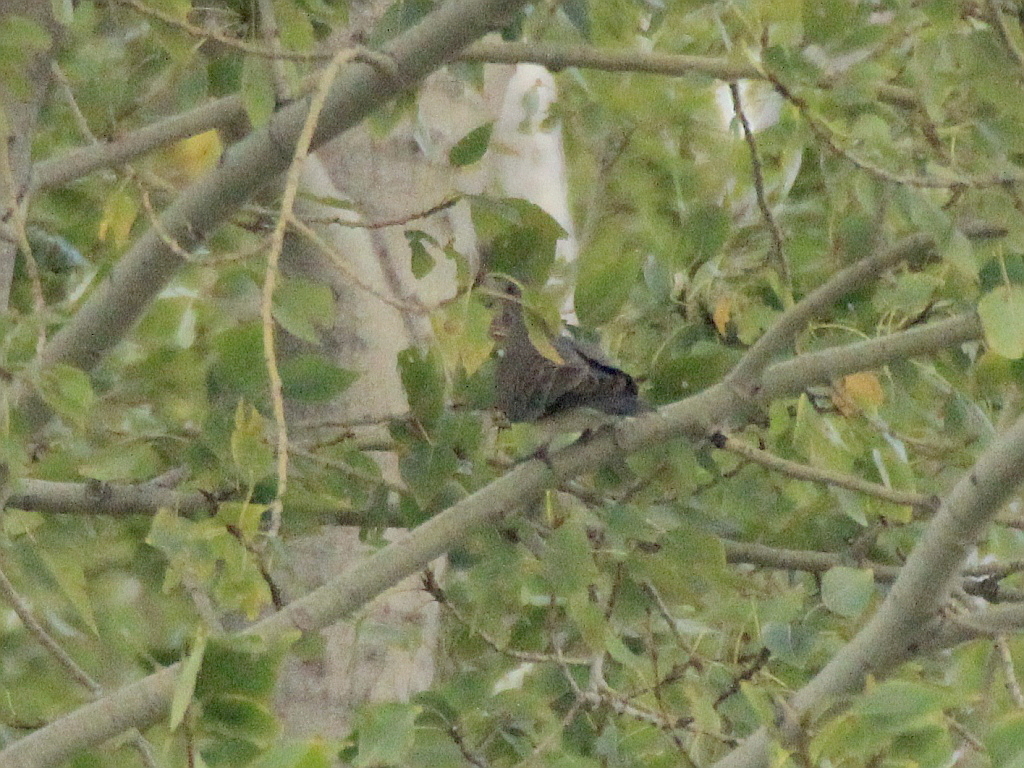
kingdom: Animalia
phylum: Chordata
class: Aves
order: Columbiformes
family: Columbidae
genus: Streptopelia
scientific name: Streptopelia orientalis
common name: Oriental turtle dove
